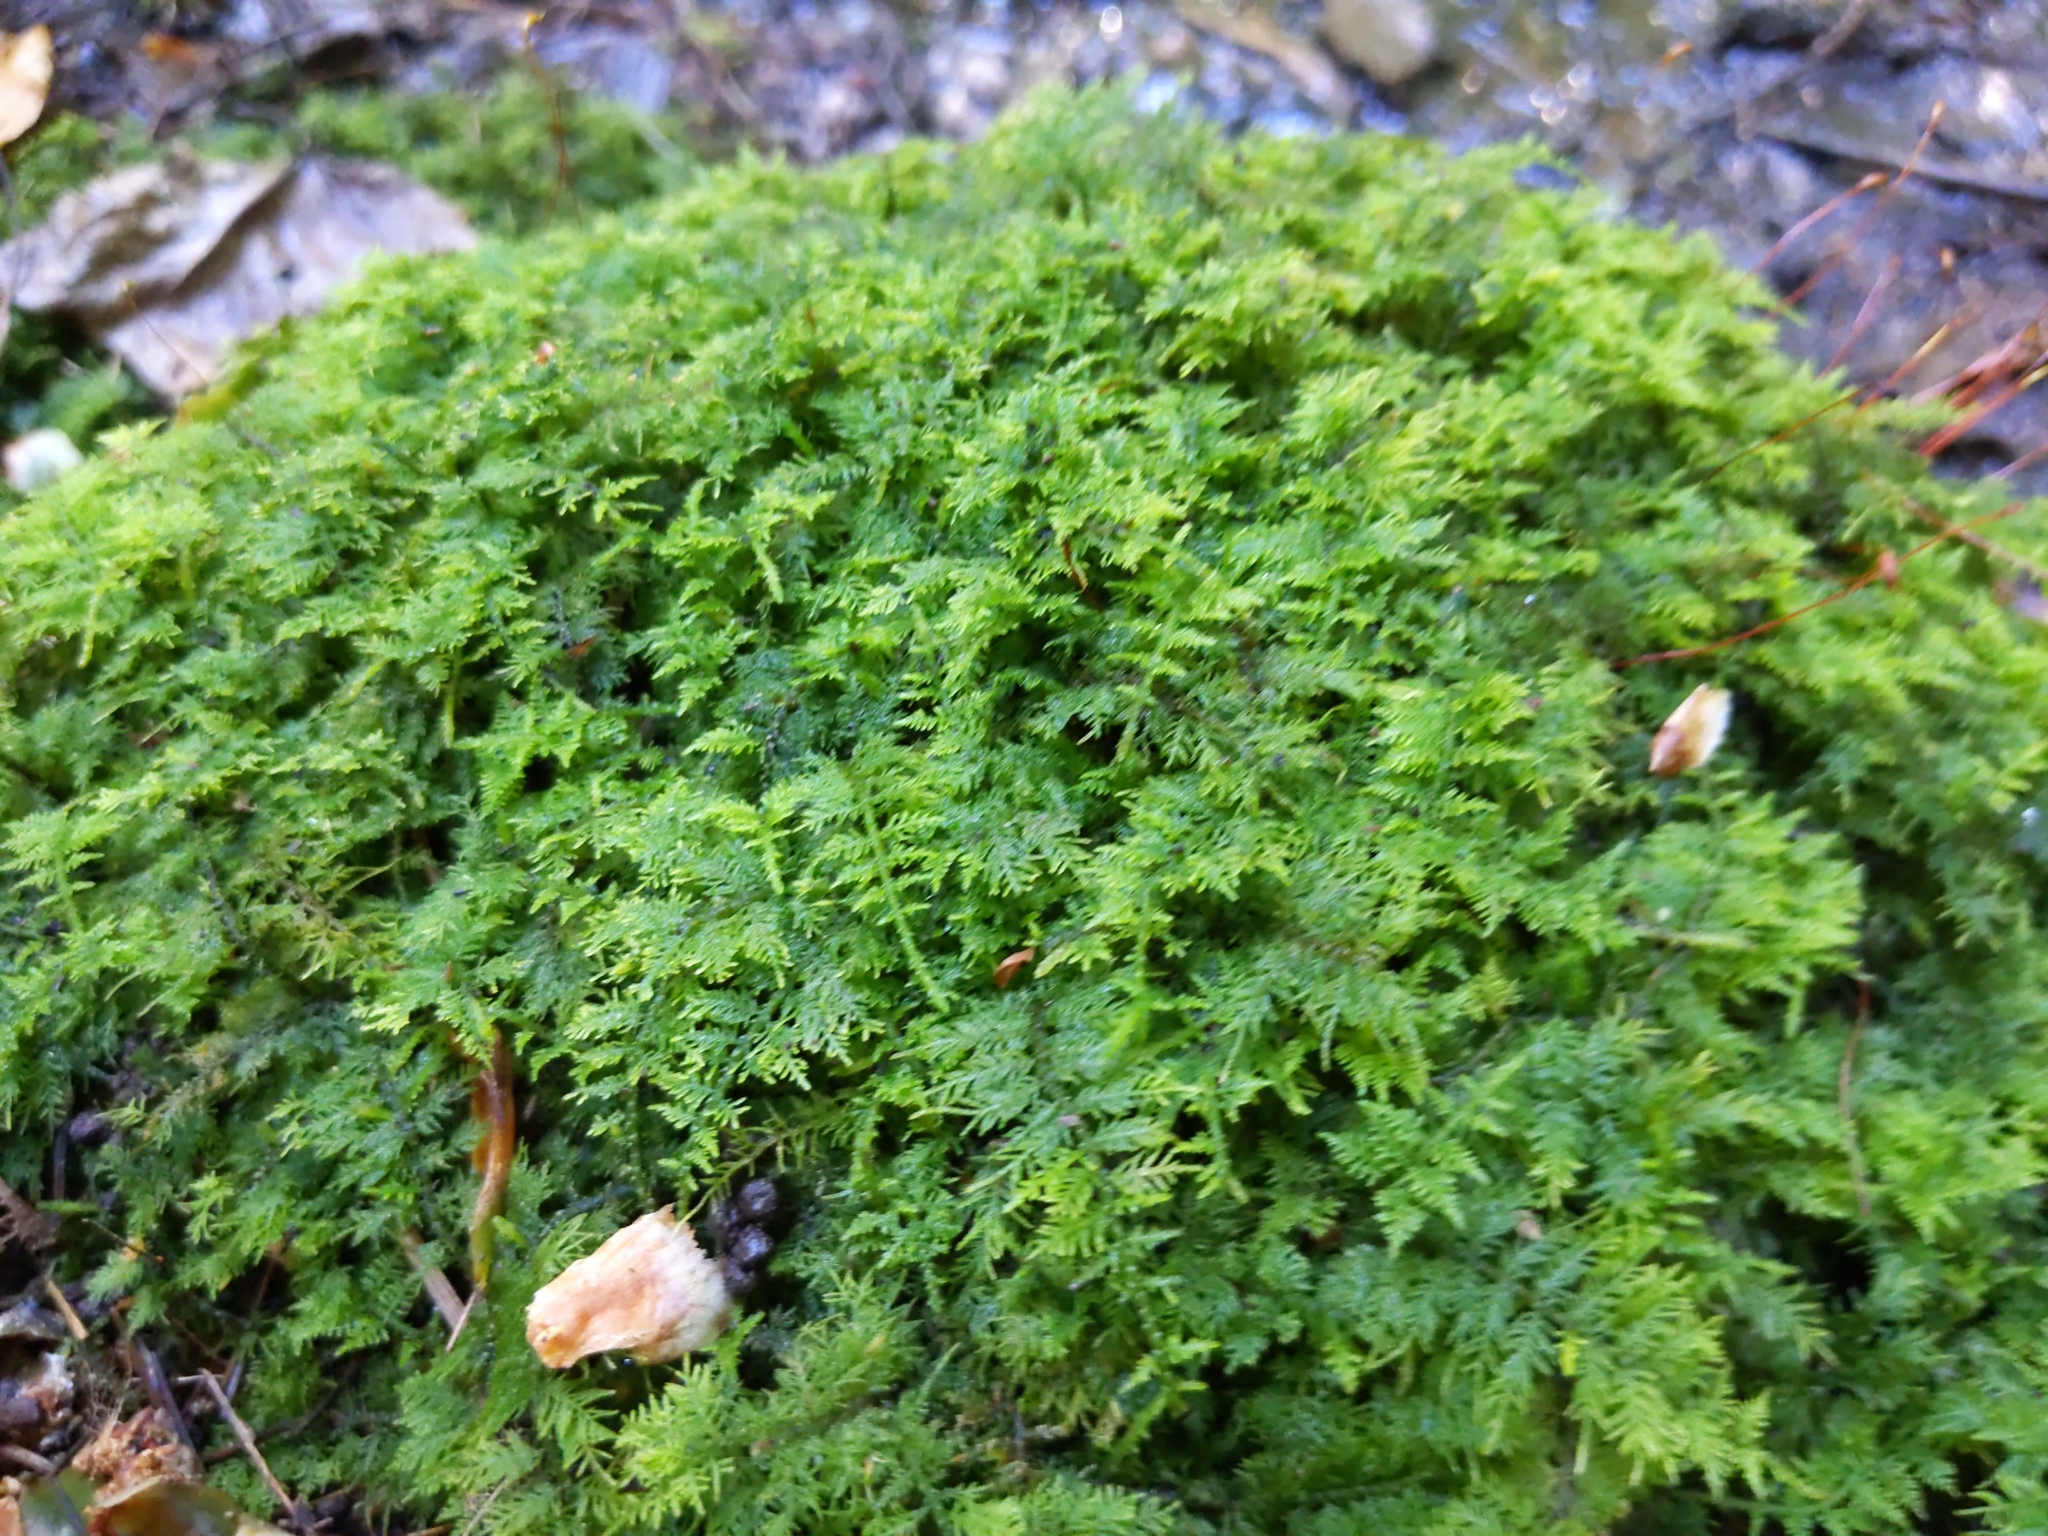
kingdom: Plantae
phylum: Bryophyta
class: Bryopsida
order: Hypnales
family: Thuidiaceae
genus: Thuidium
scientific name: Thuidium delicatulum
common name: Delicate fern moss
